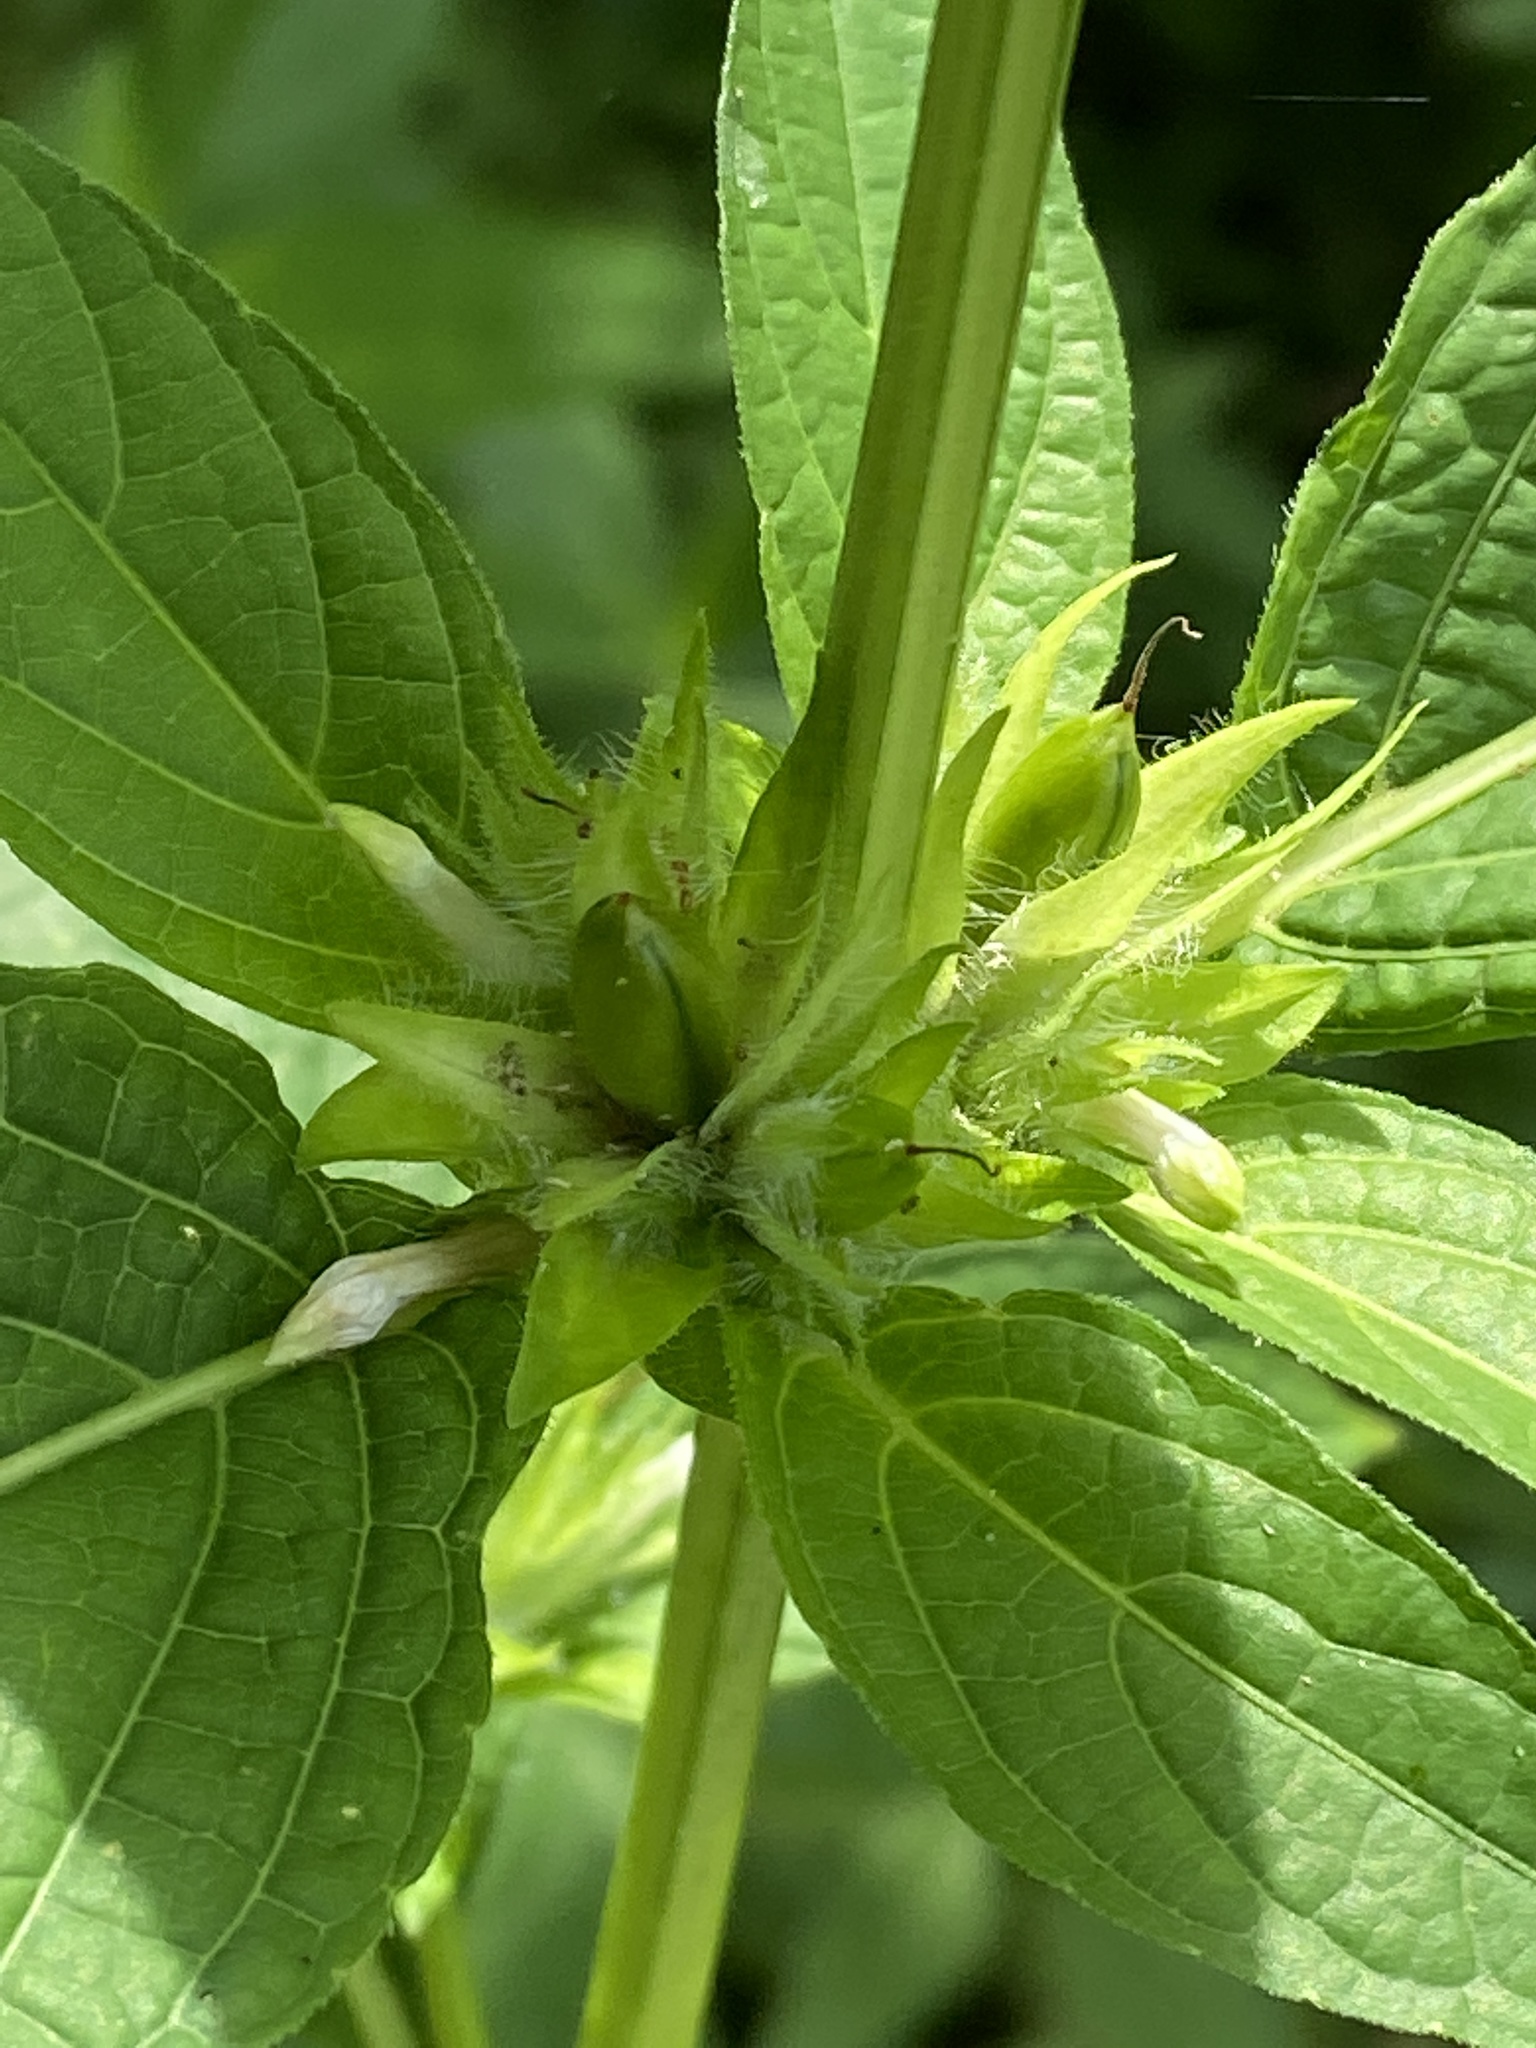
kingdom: Plantae
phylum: Tracheophyta
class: Magnoliopsida
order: Lamiales
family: Acanthaceae
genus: Ruellia
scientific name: Ruellia strepens
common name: Limestone wild petunia
